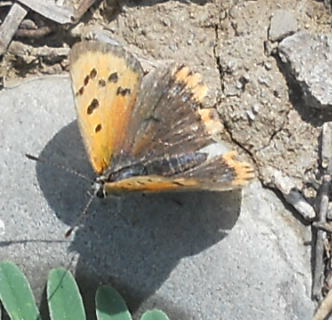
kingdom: Animalia
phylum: Arthropoda
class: Insecta
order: Lepidoptera
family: Lycaenidae
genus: Lycaena
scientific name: Lycaena phlaeas
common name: Small copper
